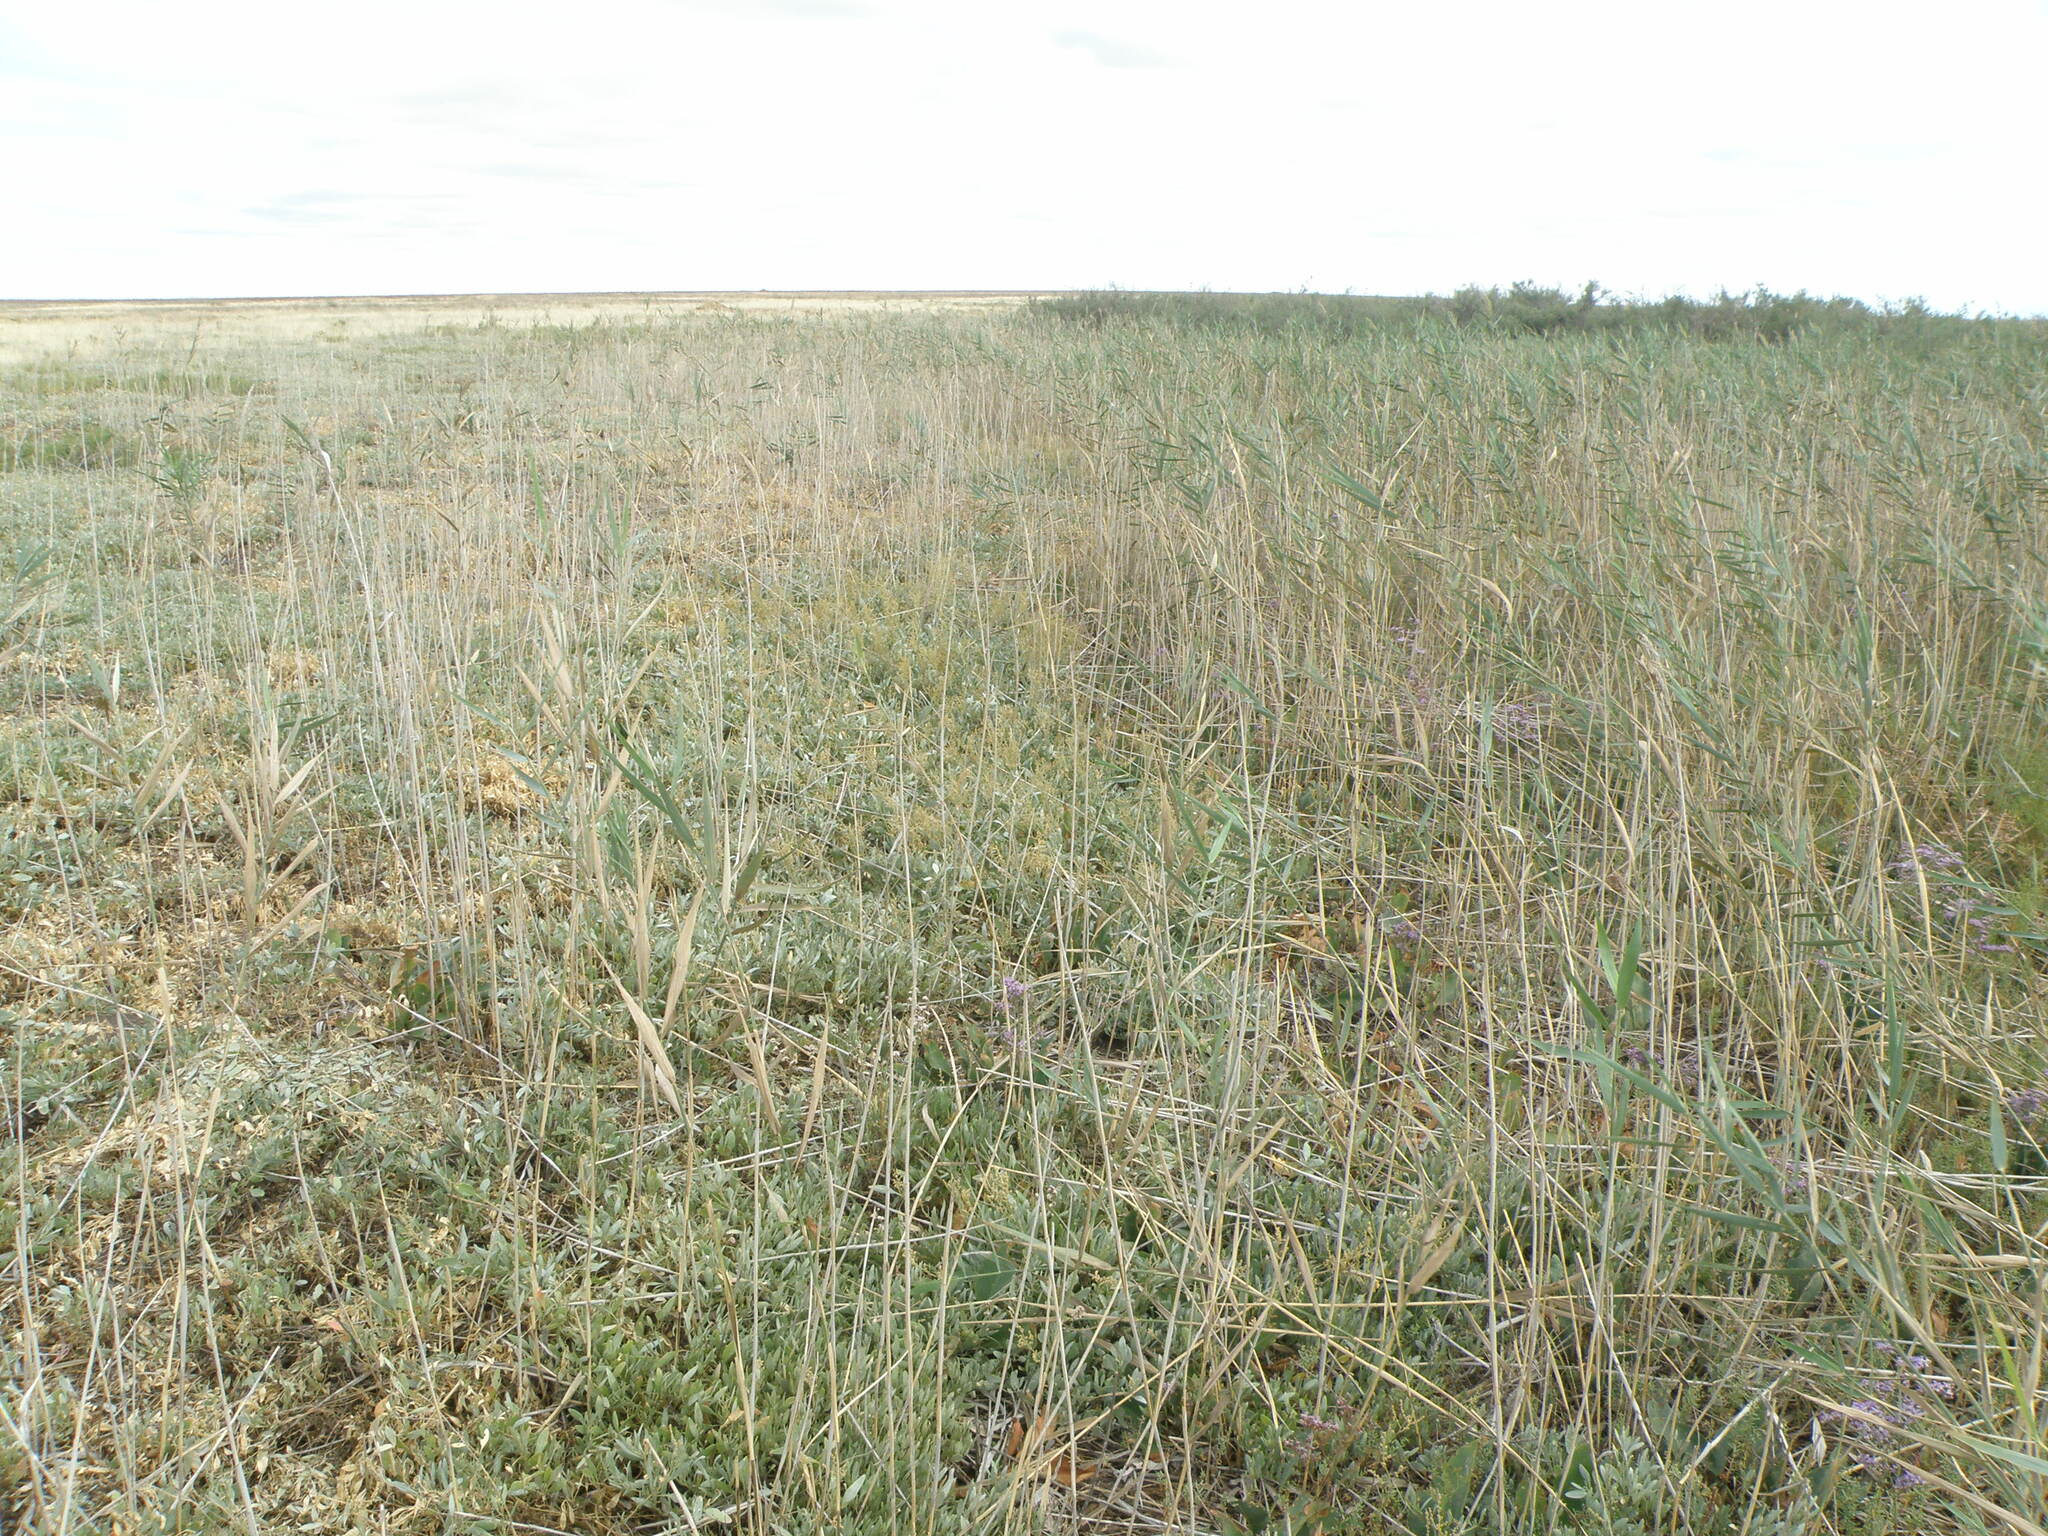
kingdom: Plantae
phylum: Tracheophyta
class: Liliopsida
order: Poales
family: Poaceae
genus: Phragmites
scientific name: Phragmites australis
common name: Common reed
